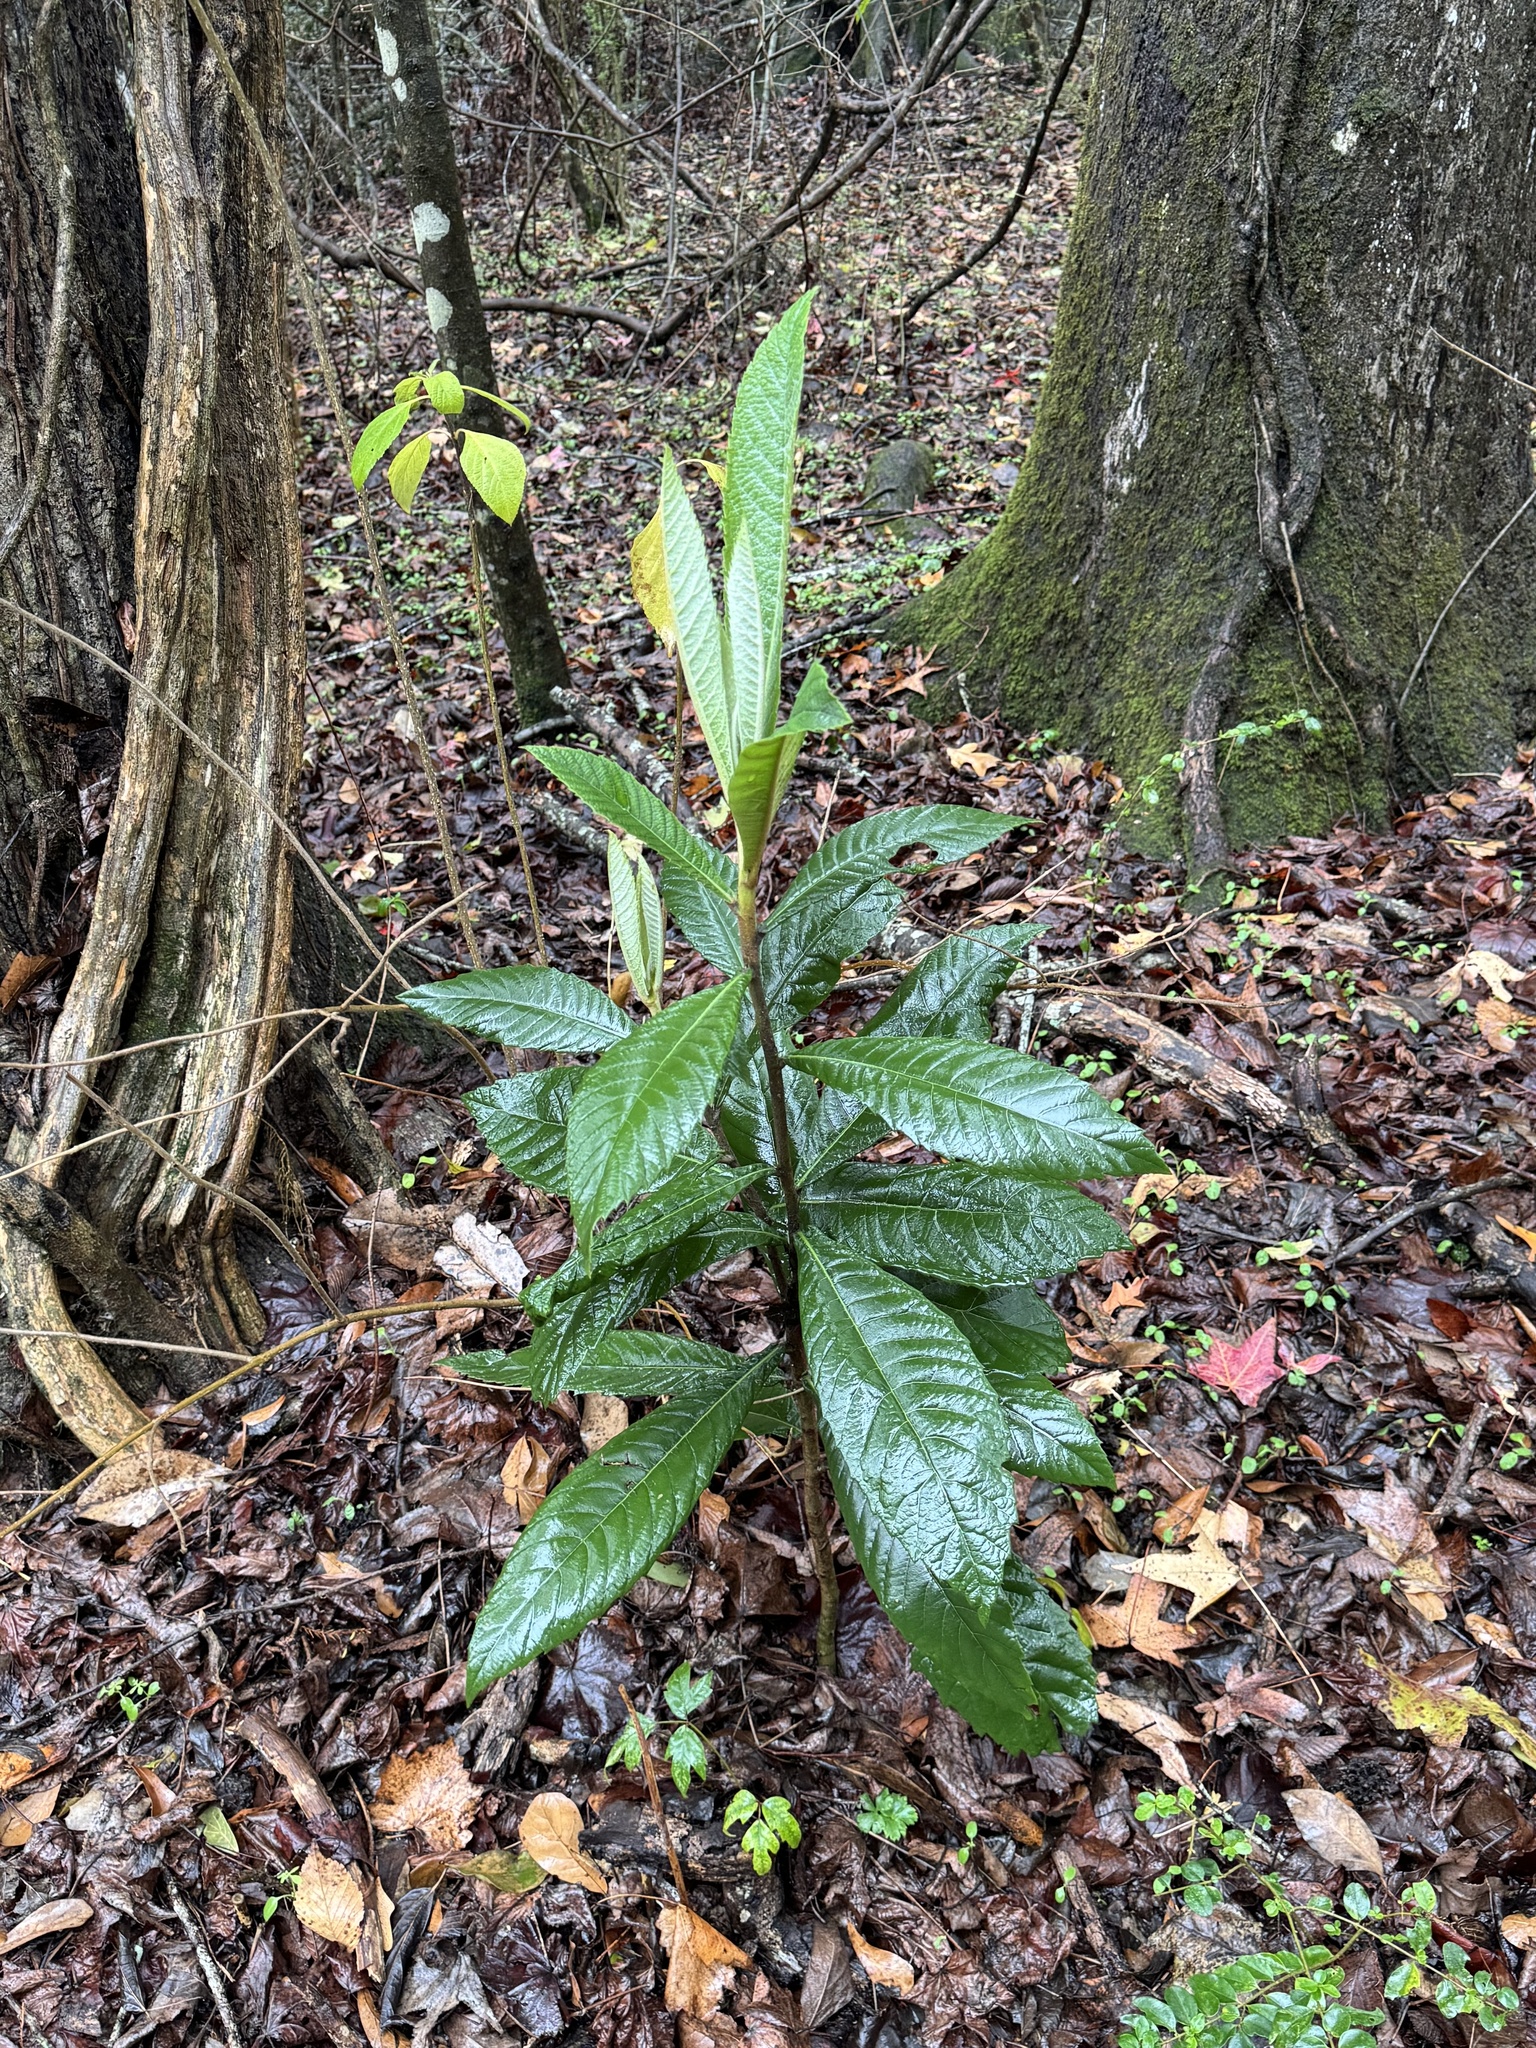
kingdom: Plantae
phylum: Tracheophyta
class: Magnoliopsida
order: Rosales
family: Rosaceae
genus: Rhaphiolepis
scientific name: Rhaphiolepis bibas
